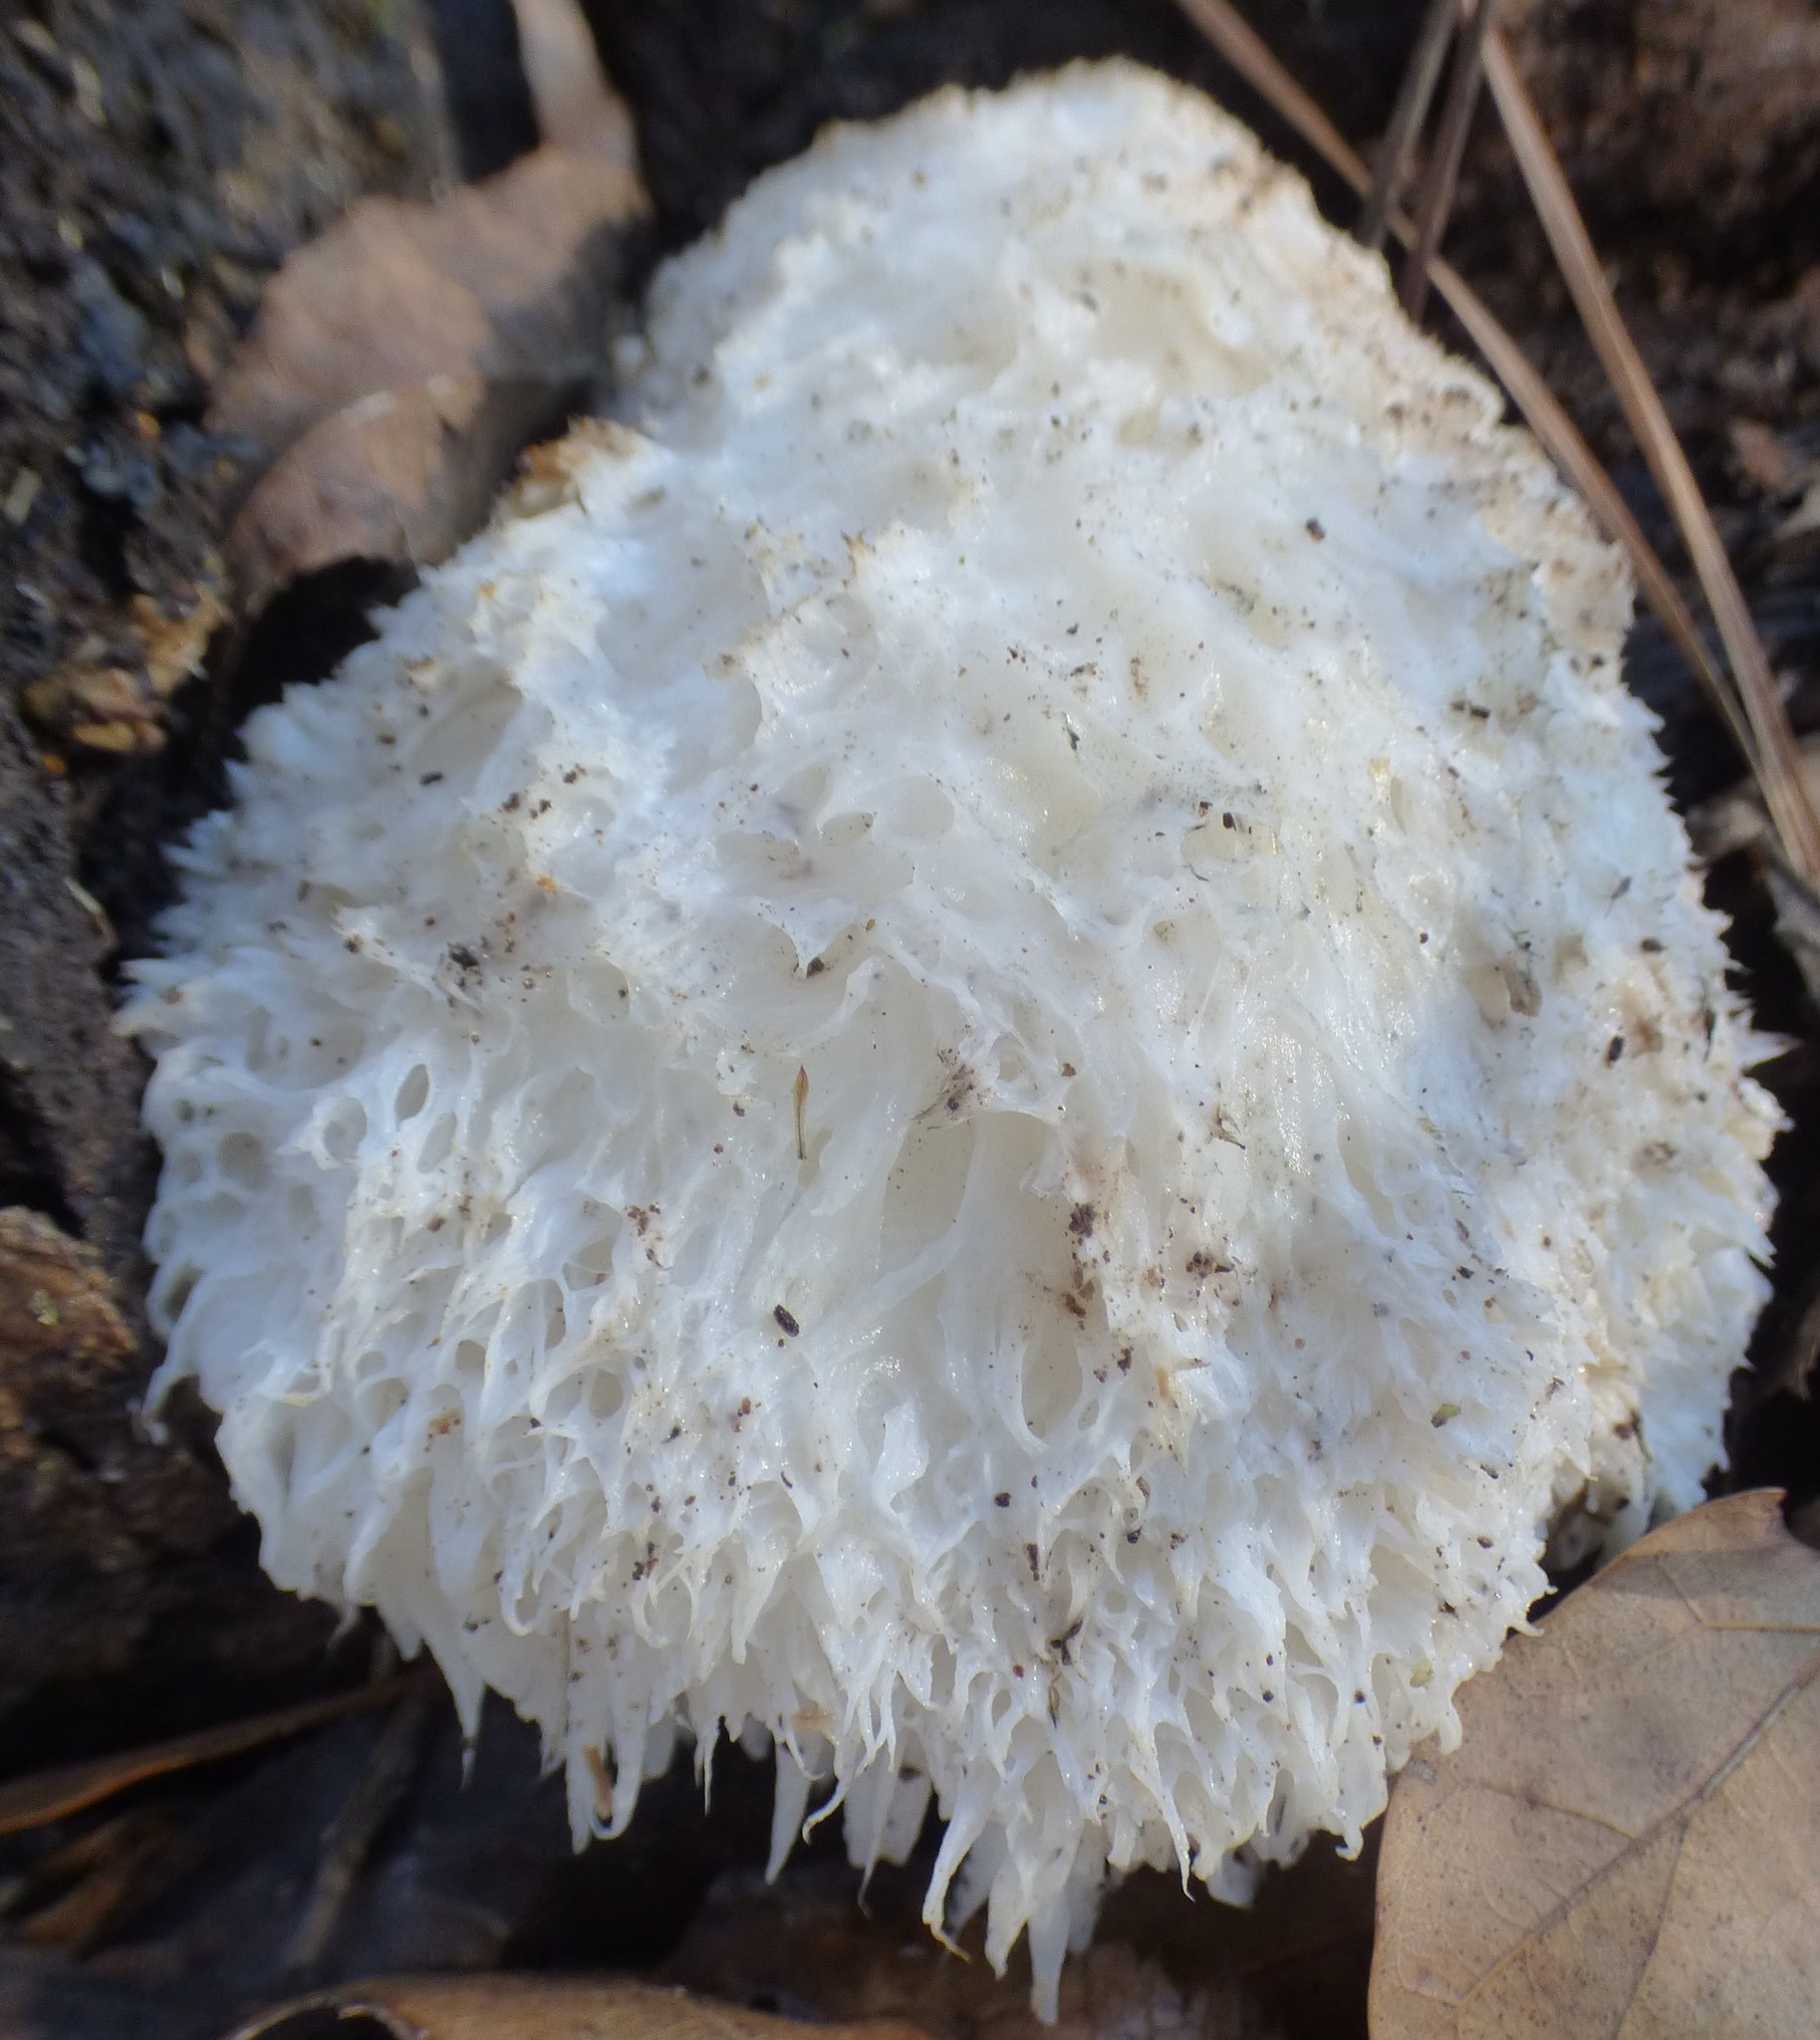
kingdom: Fungi
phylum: Basidiomycota
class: Agaricomycetes
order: Russulales
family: Hericiaceae
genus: Hericium
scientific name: Hericium erinaceus
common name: Bearded tooth
